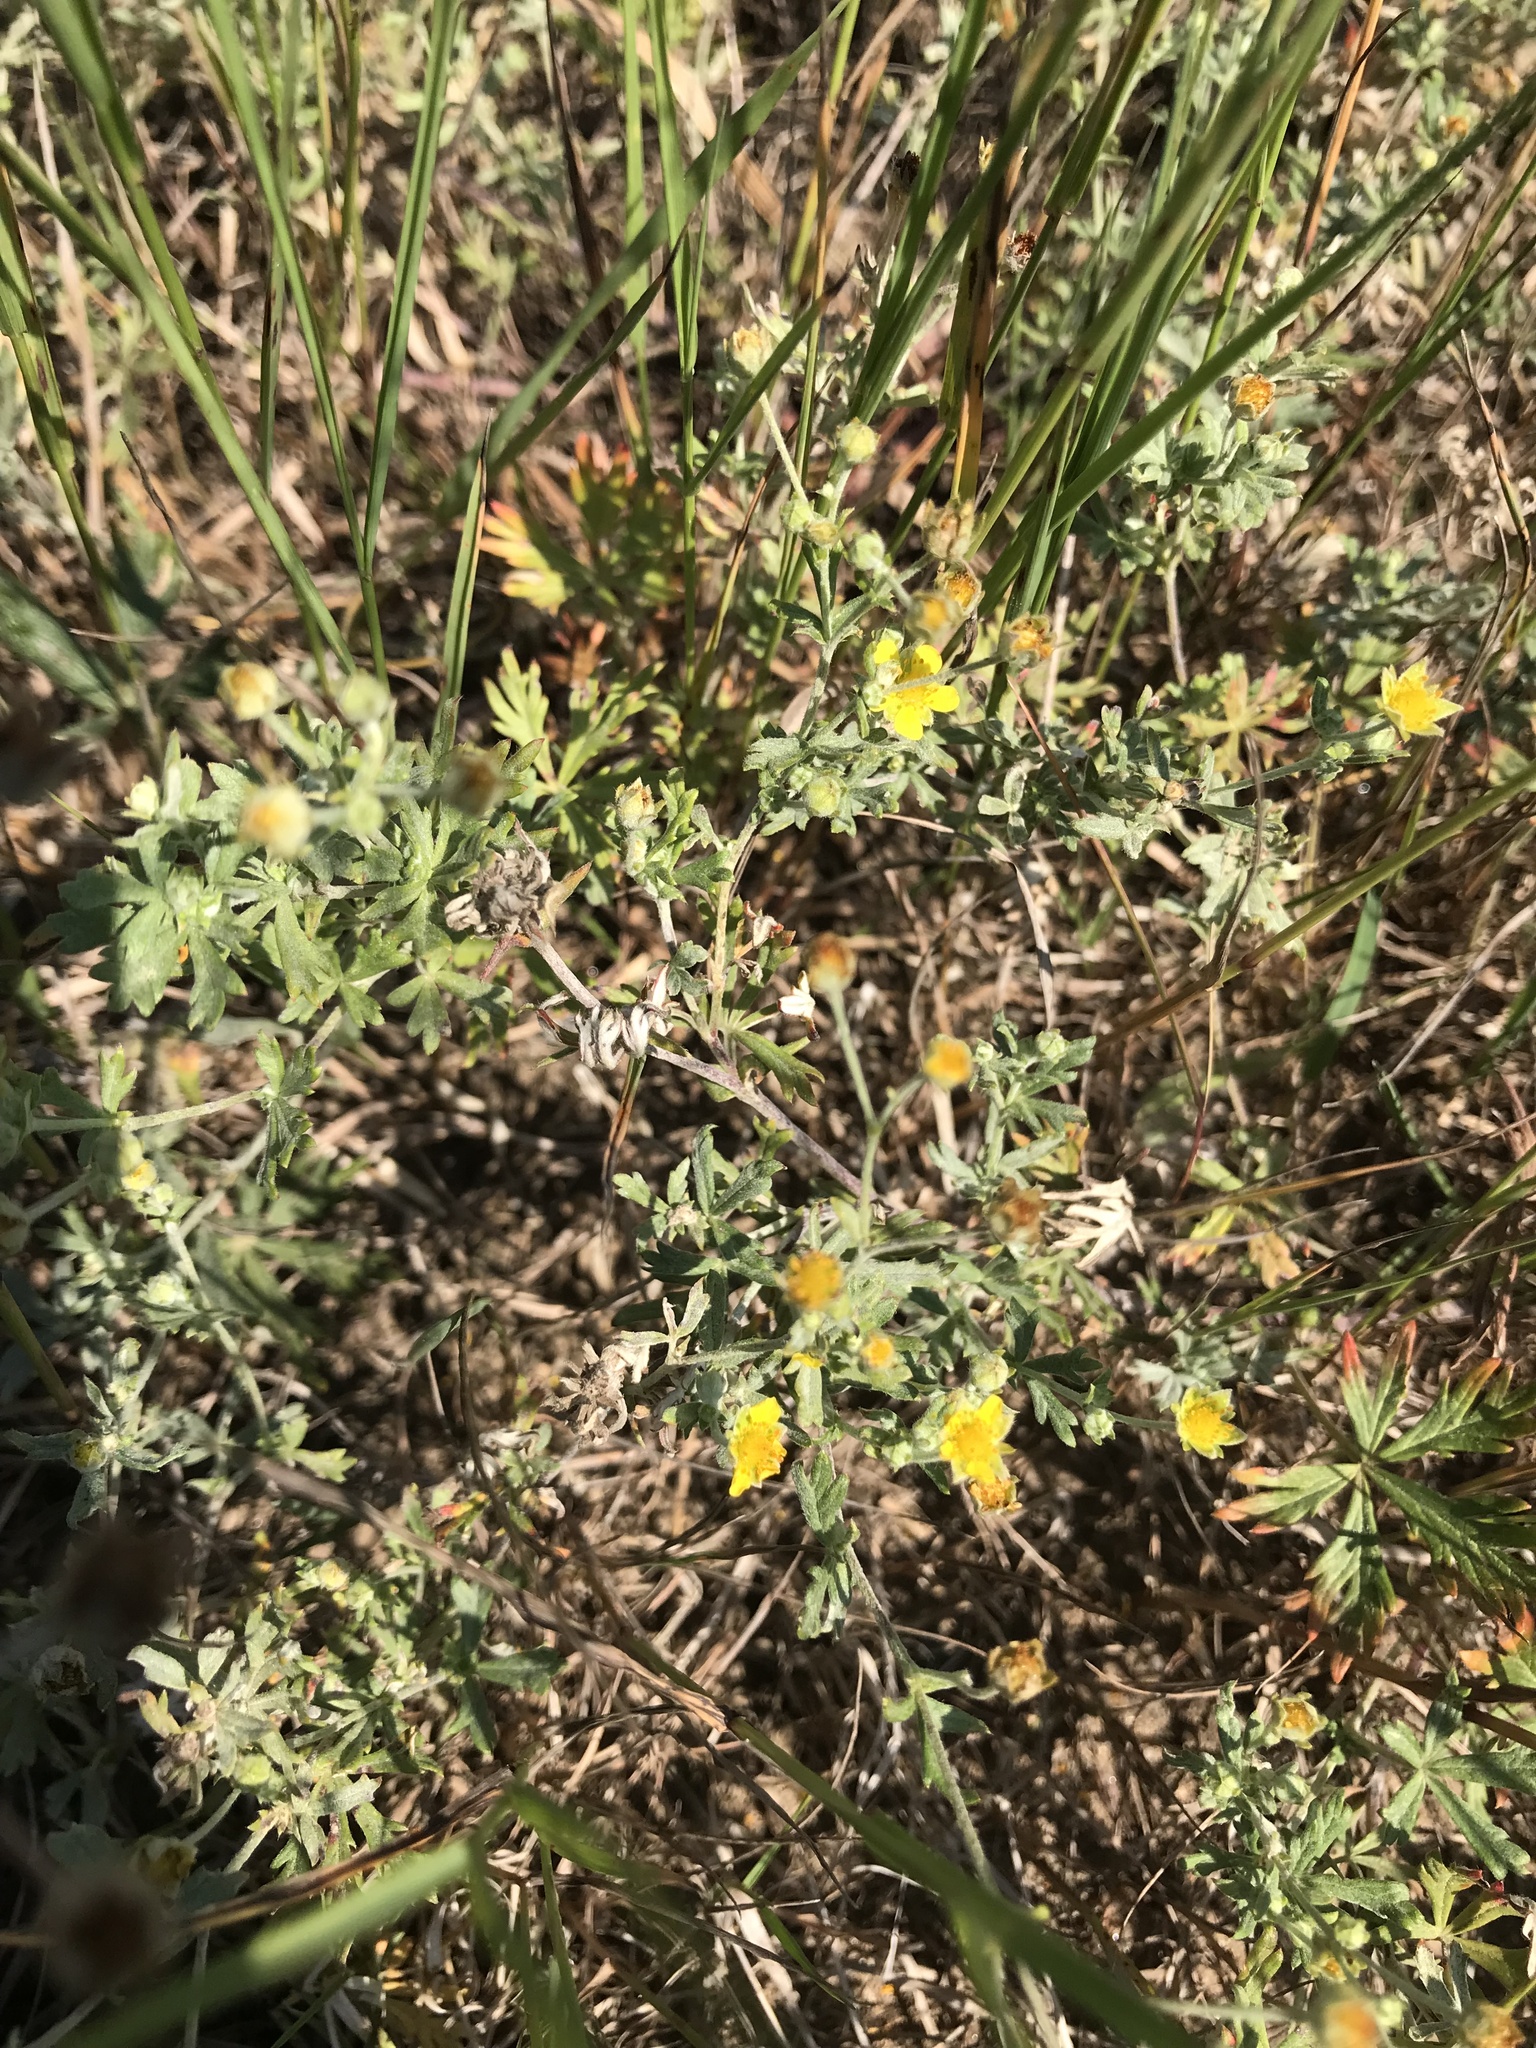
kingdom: Plantae
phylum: Tracheophyta
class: Magnoliopsida
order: Rosales
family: Rosaceae
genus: Potentilla
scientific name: Potentilla argentea
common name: Hoary cinquefoil
